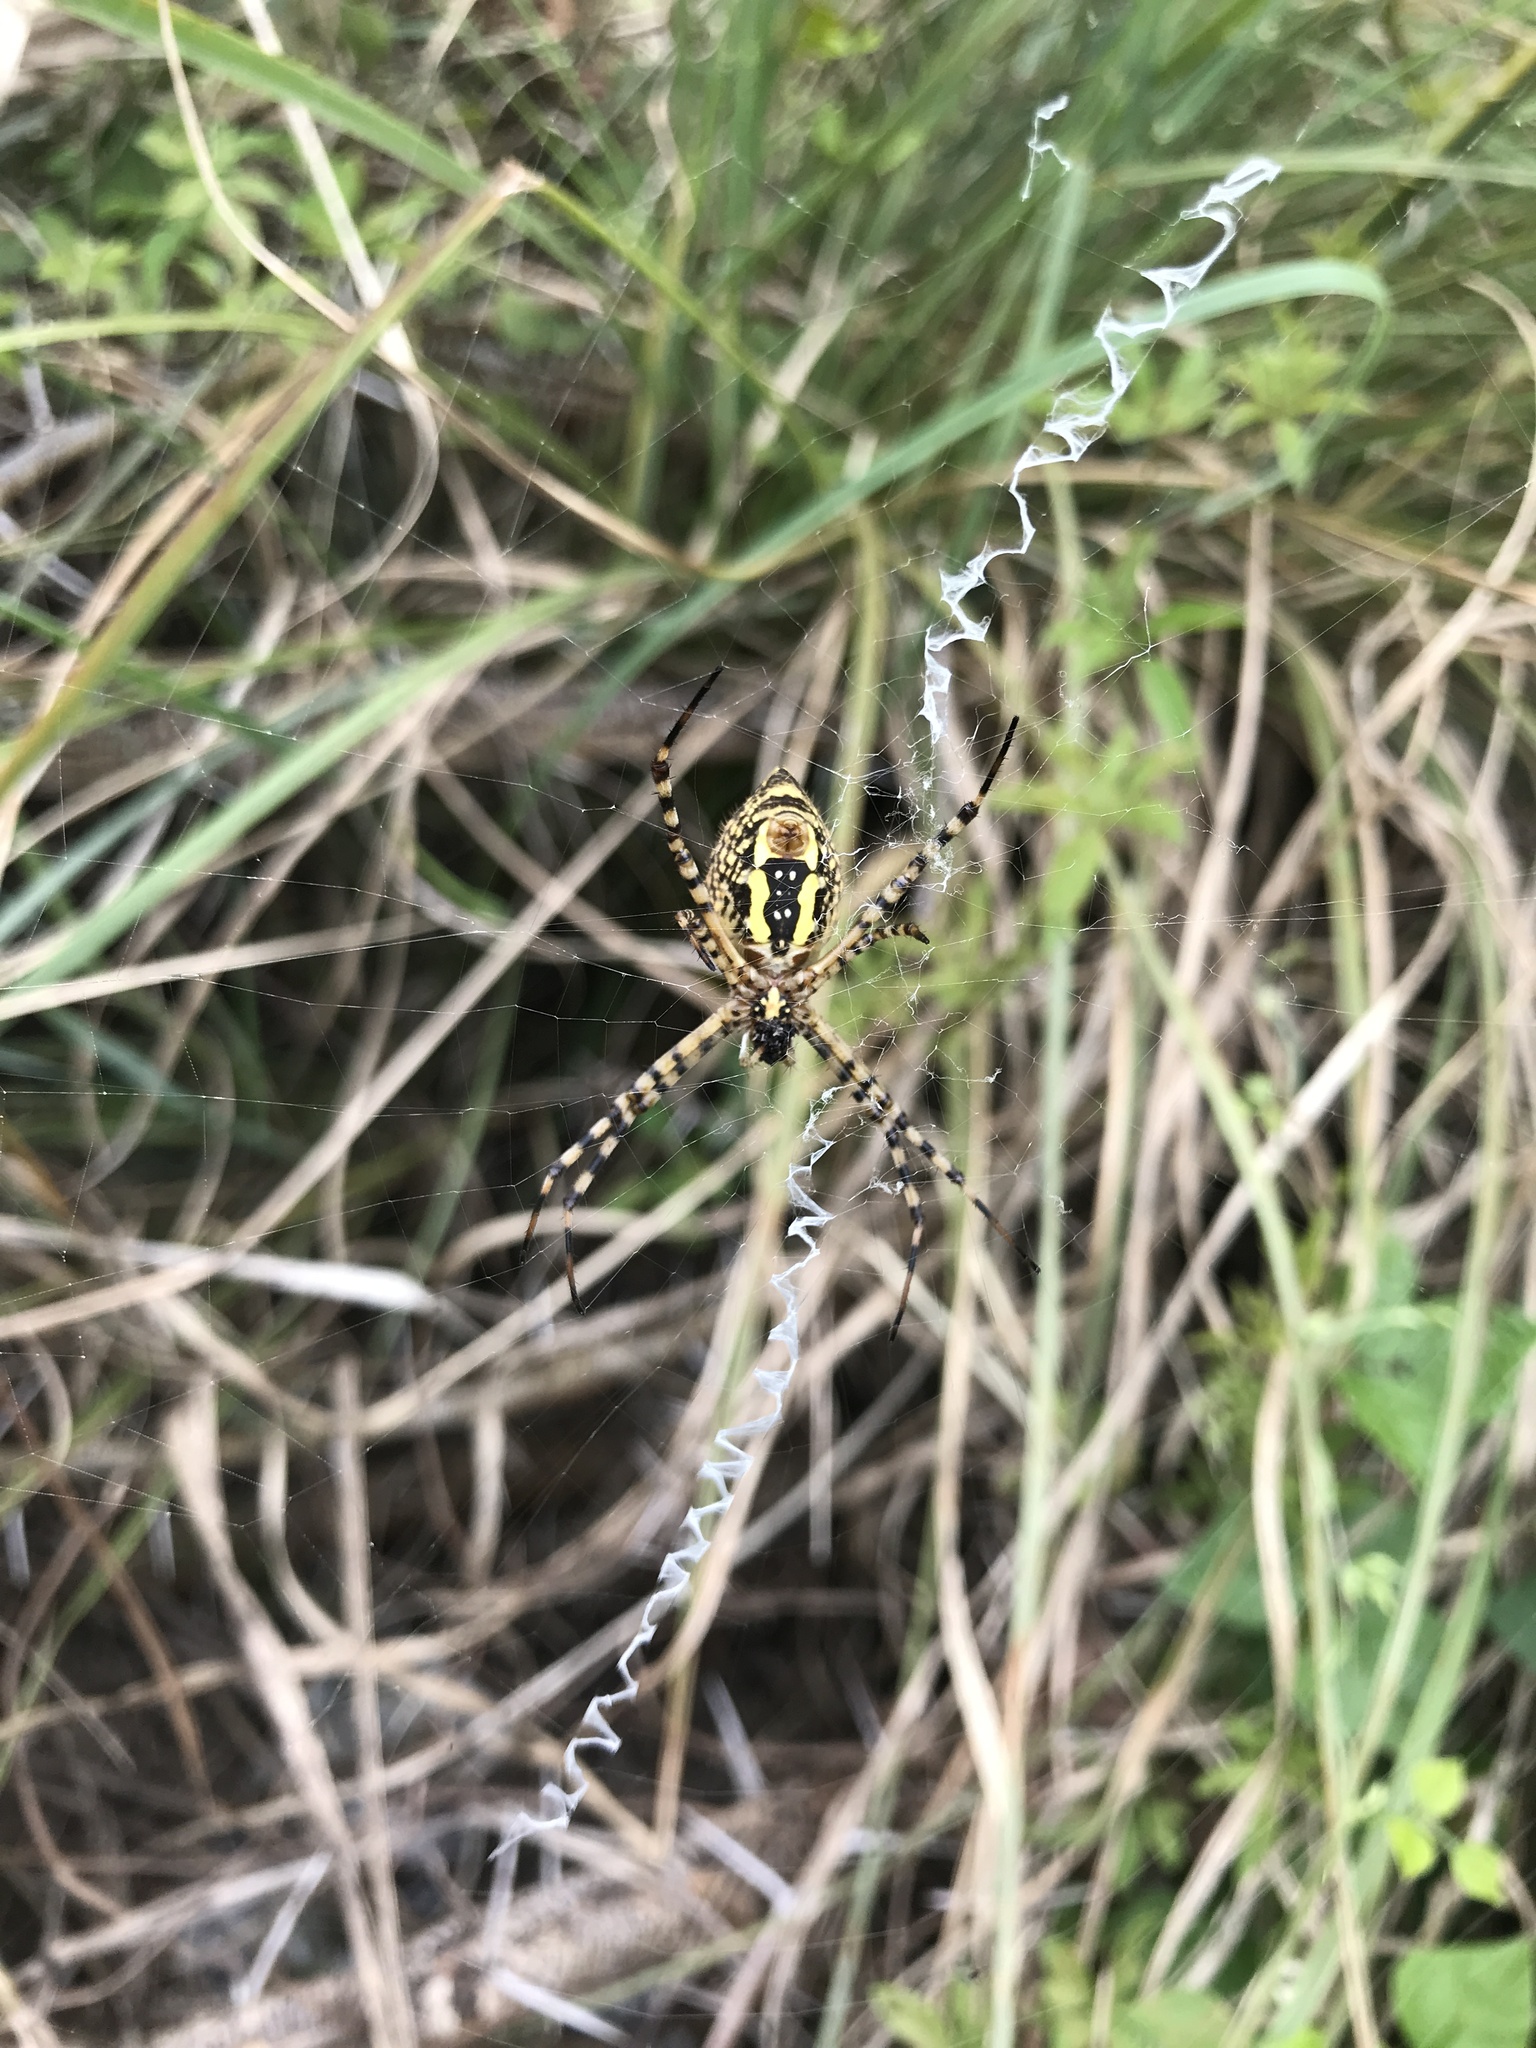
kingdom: Animalia
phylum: Arthropoda
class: Arachnida
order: Araneae
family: Araneidae
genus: Argiope
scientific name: Argiope trifasciata
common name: Banded garden spider
